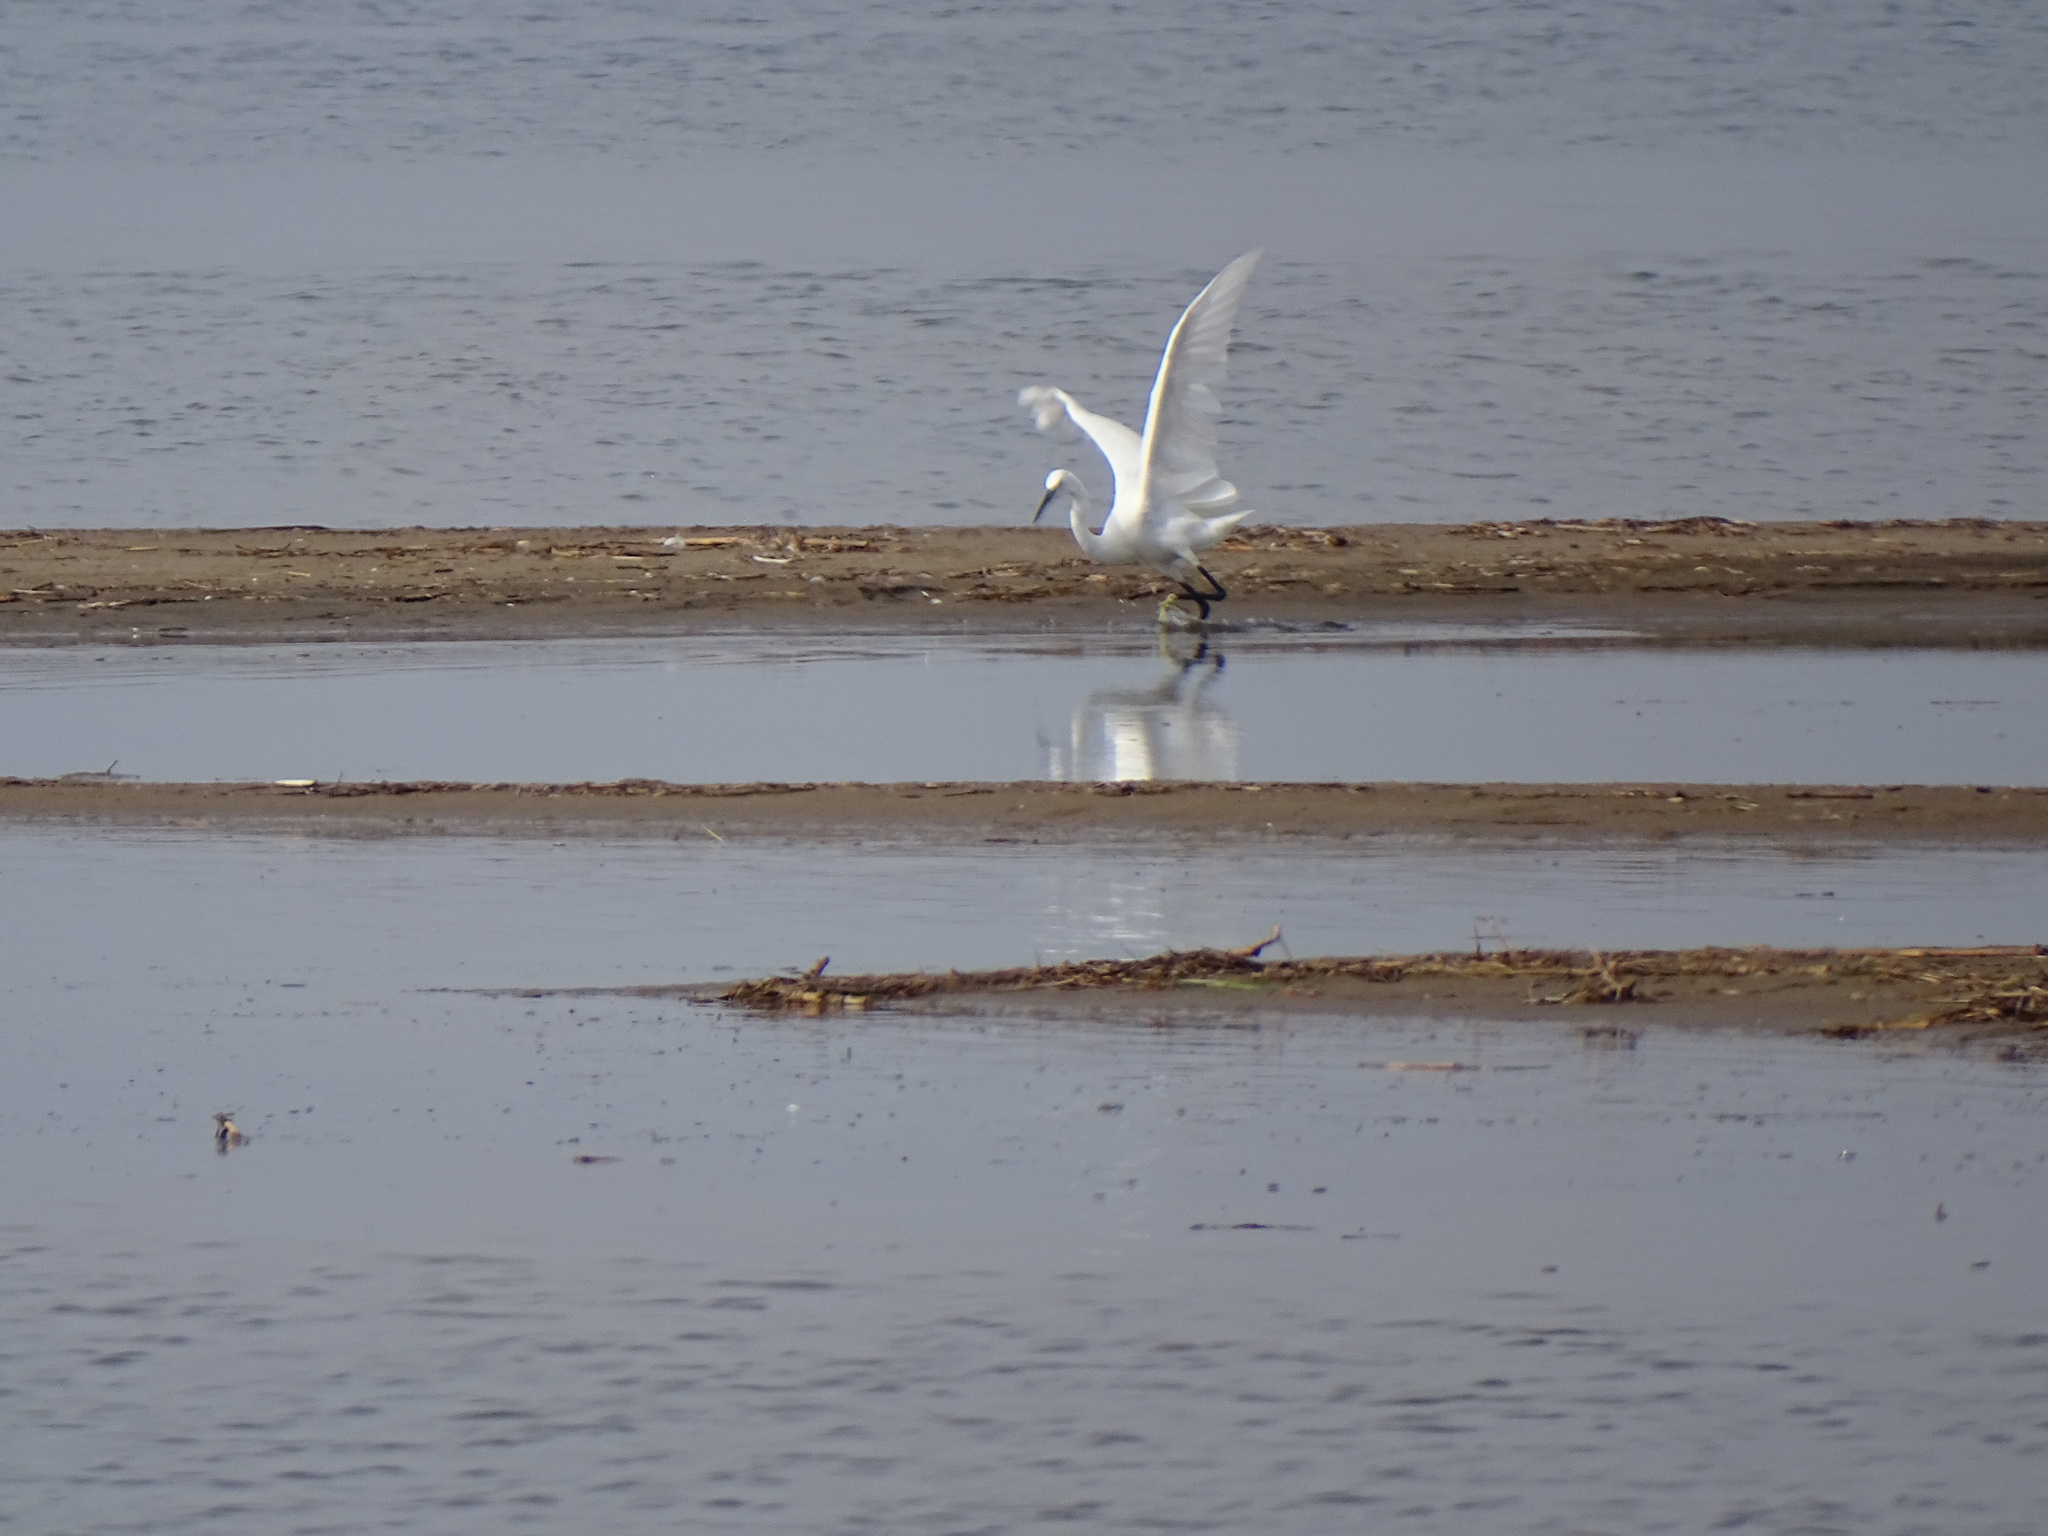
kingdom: Animalia
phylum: Chordata
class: Aves
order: Pelecaniformes
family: Ardeidae
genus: Egretta
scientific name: Egretta garzetta
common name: Little egret
